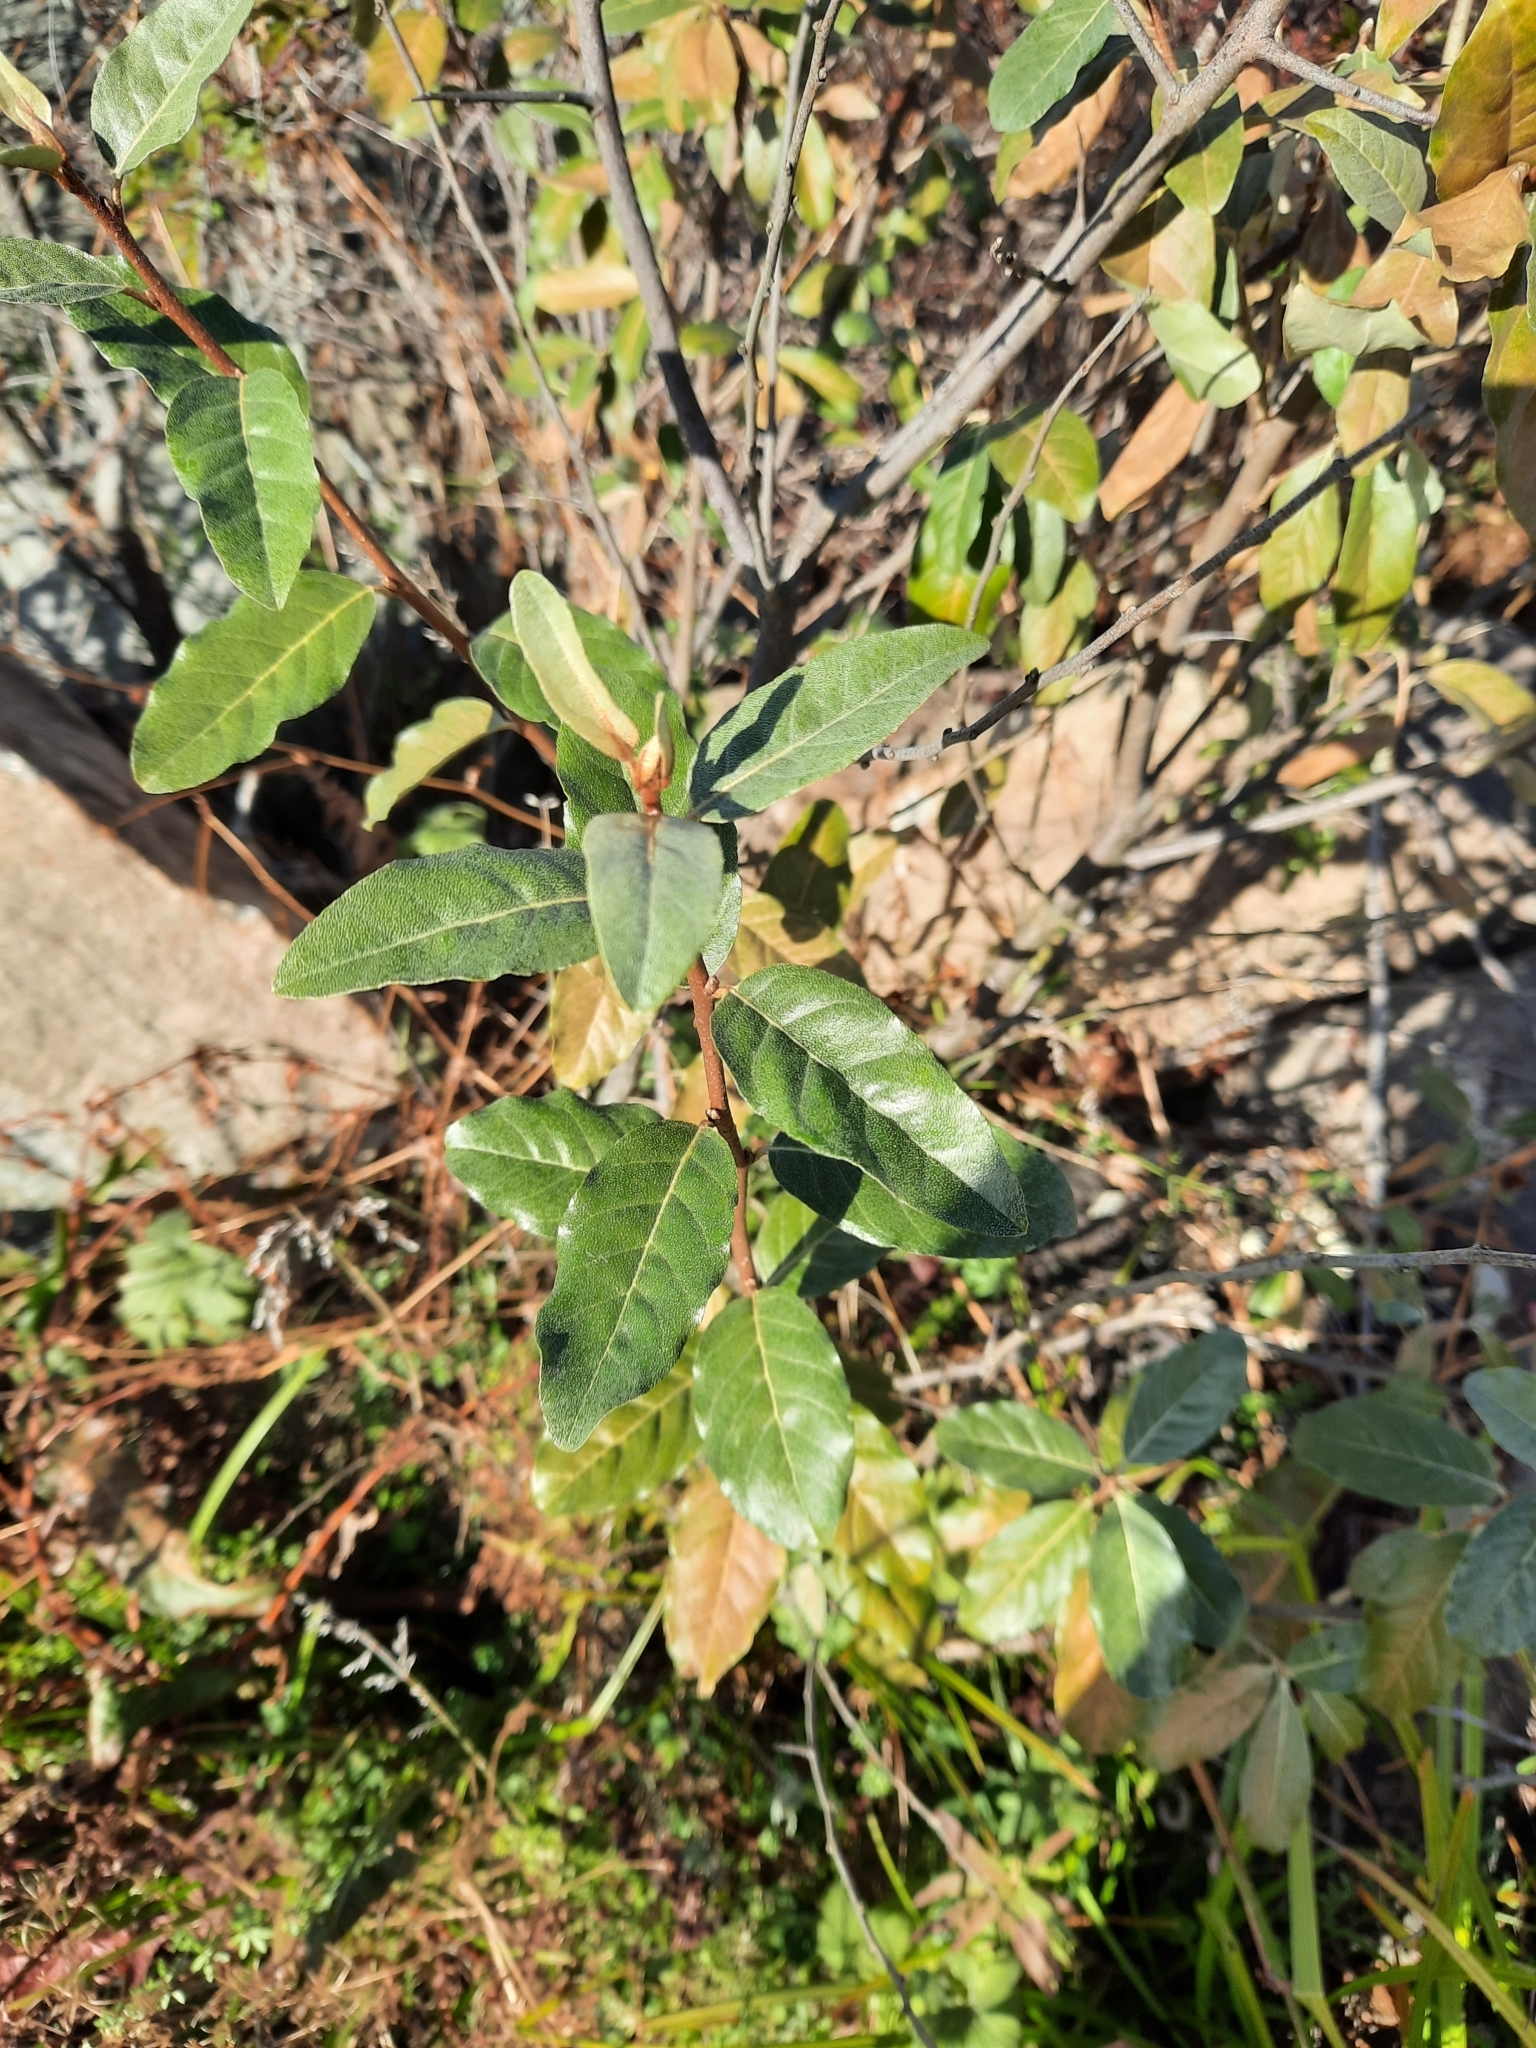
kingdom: Plantae
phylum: Tracheophyta
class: Magnoliopsida
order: Rosales
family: Elaeagnaceae
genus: Elaeagnus
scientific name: Elaeagnus umbellata
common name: Autumn olive
